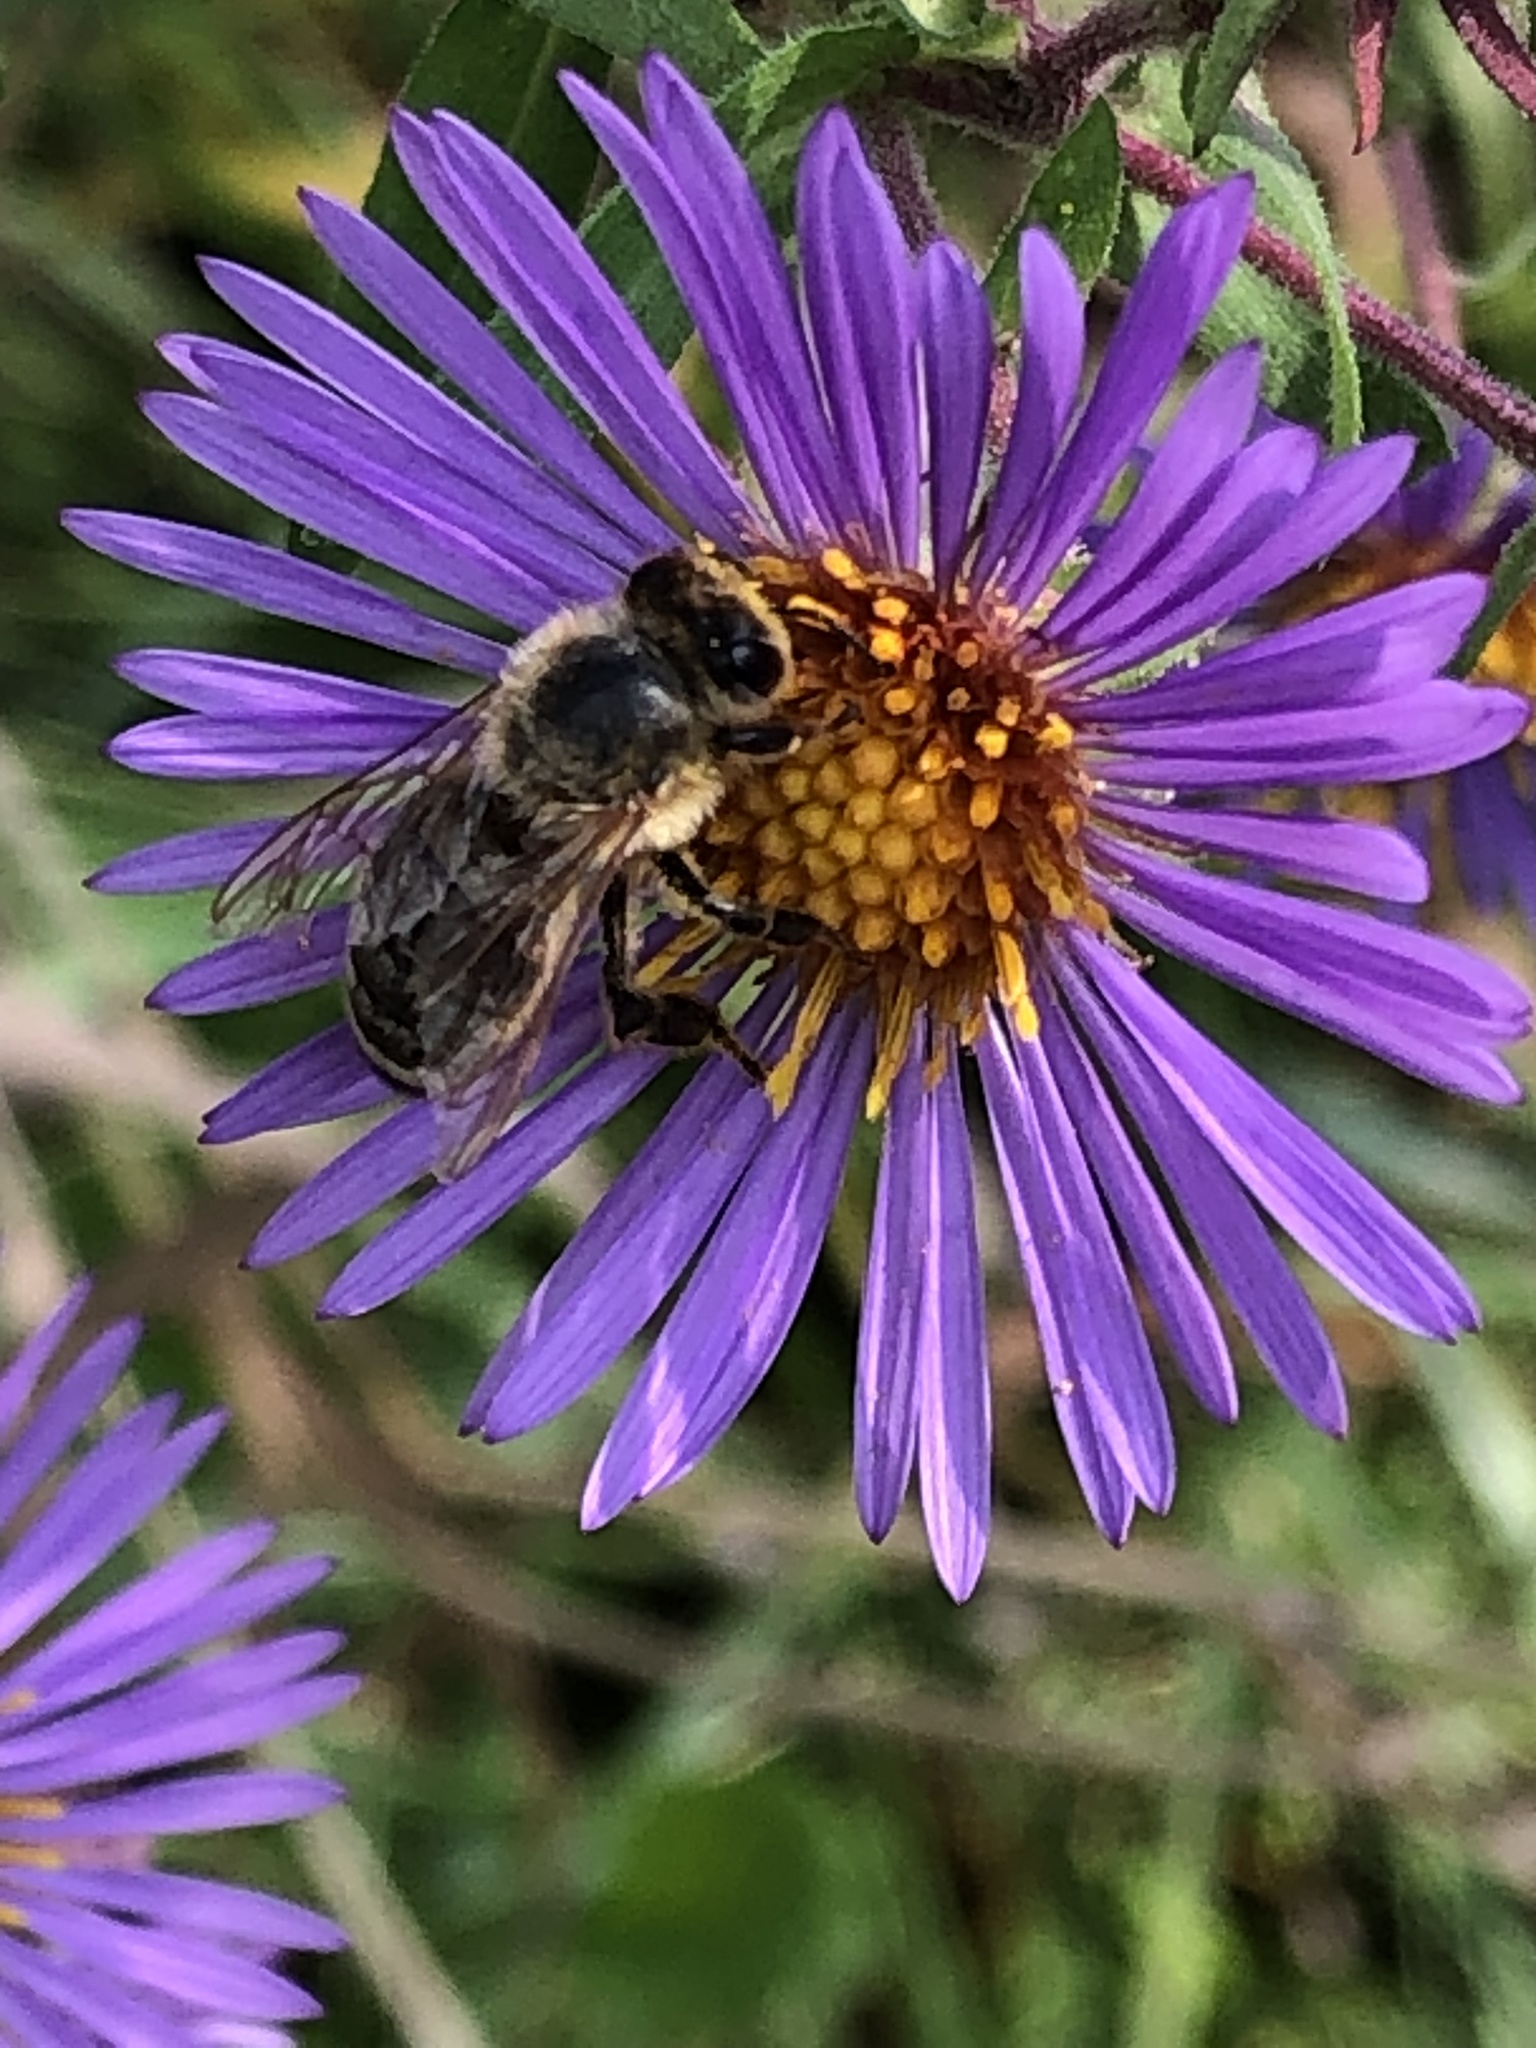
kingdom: Animalia
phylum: Arthropoda
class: Insecta
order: Hymenoptera
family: Apidae
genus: Apis
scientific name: Apis mellifera
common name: Honey bee
